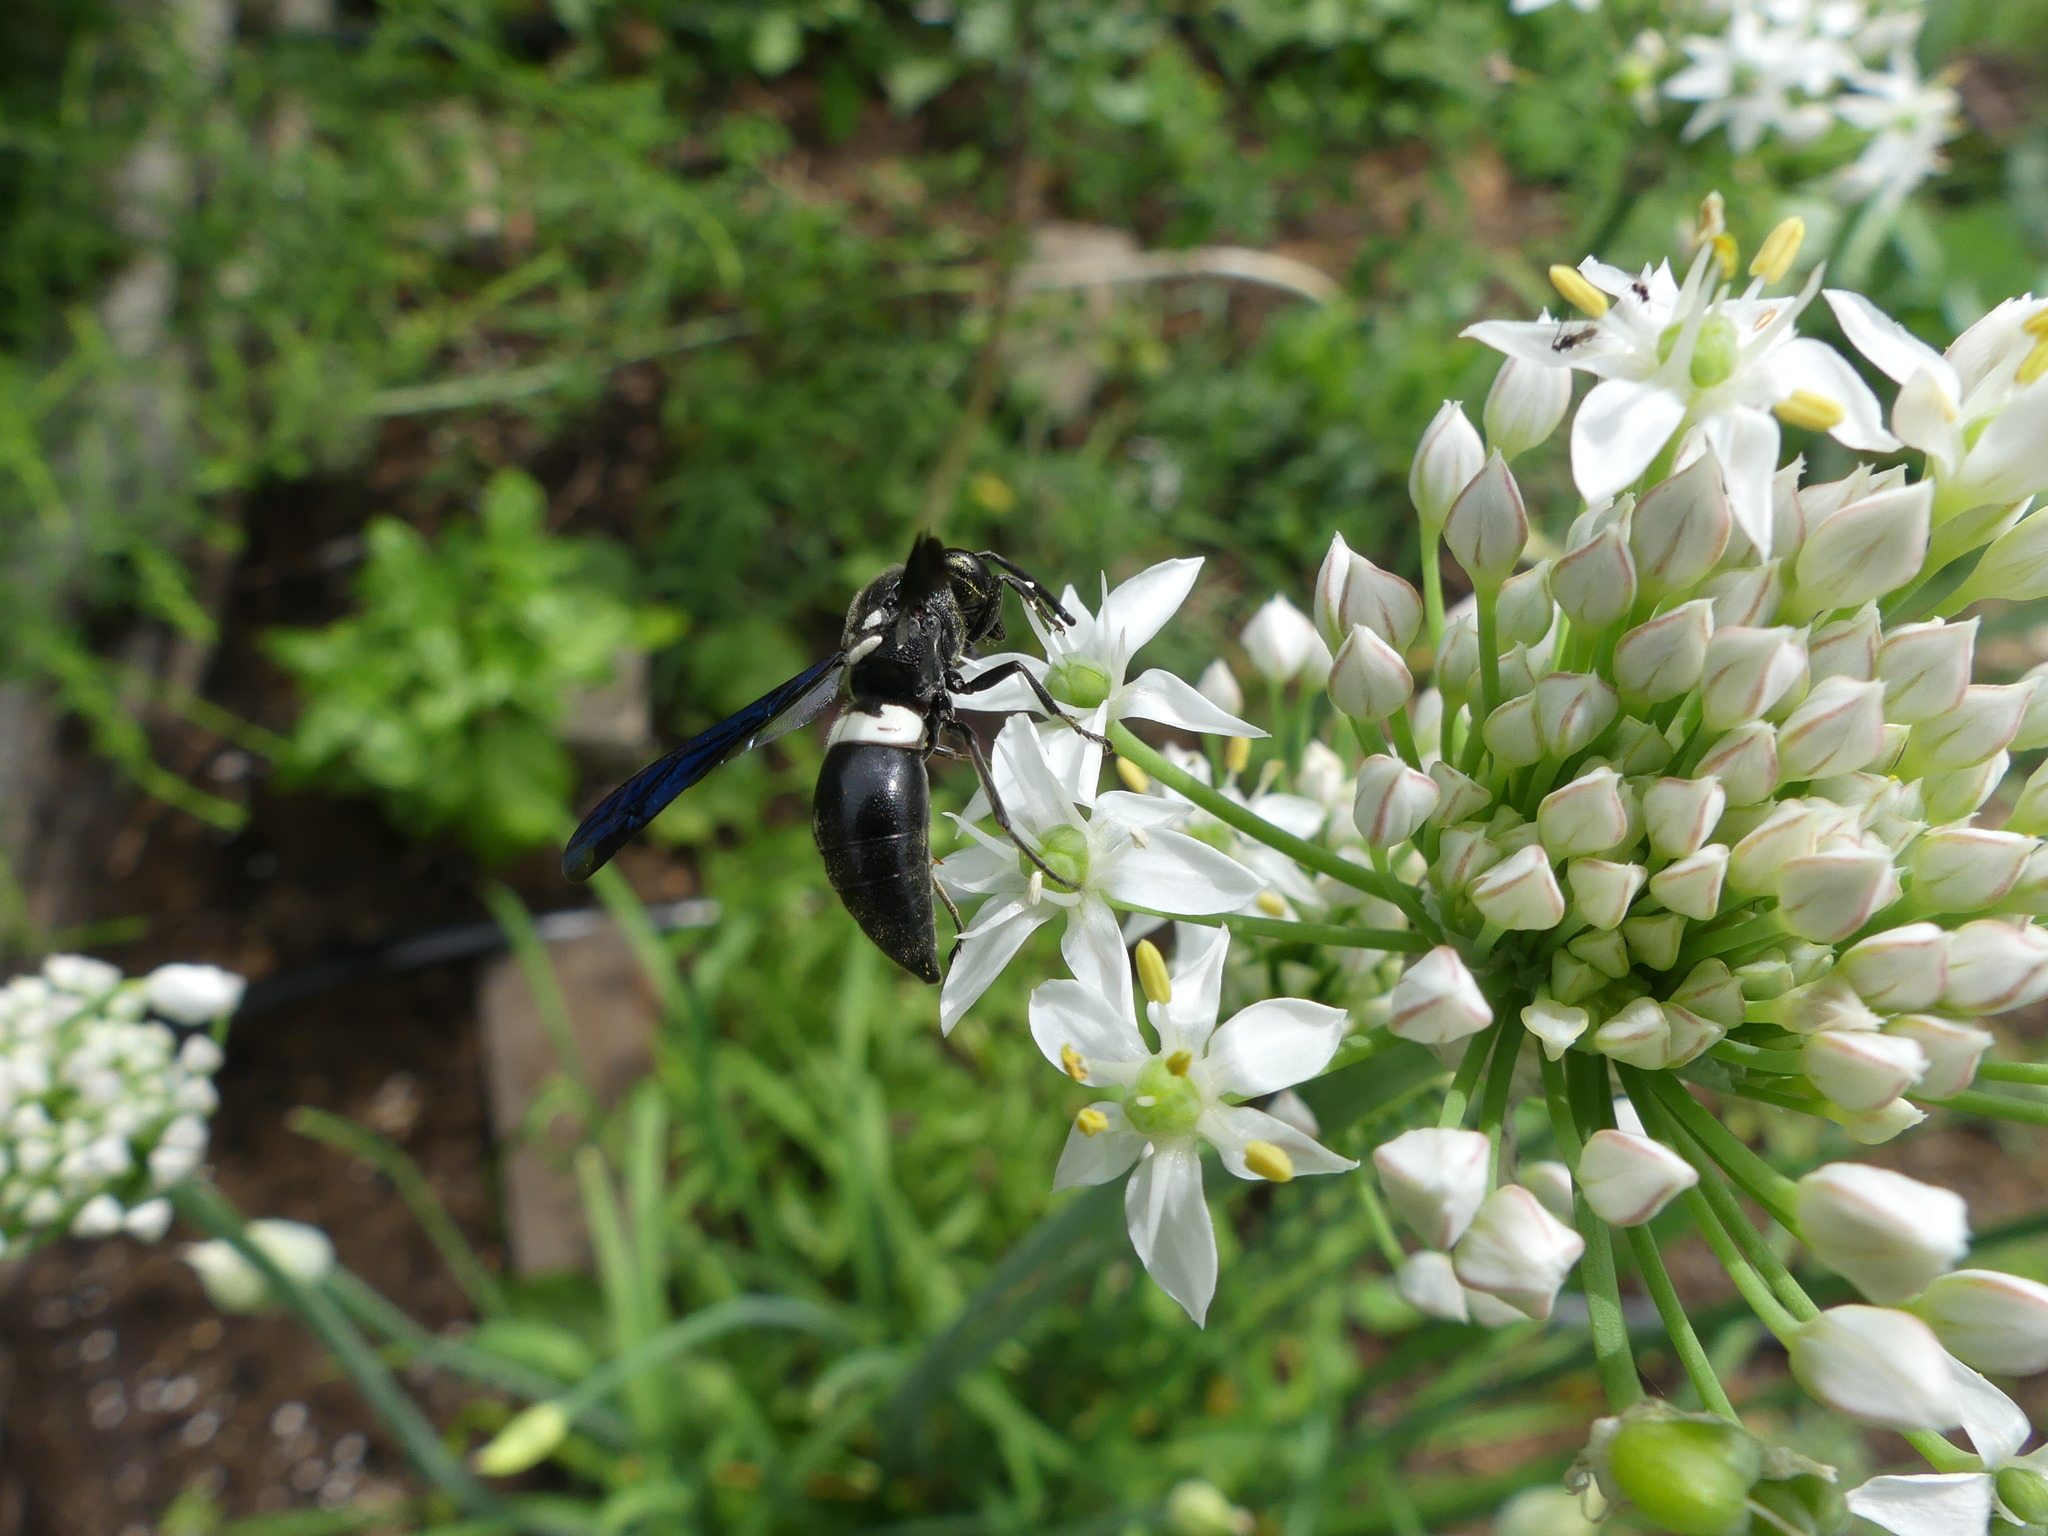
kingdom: Animalia
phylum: Arthropoda
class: Insecta
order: Hymenoptera
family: Eumenidae
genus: Monobia
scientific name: Monobia quadridens
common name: Four-toothed mason wasp
